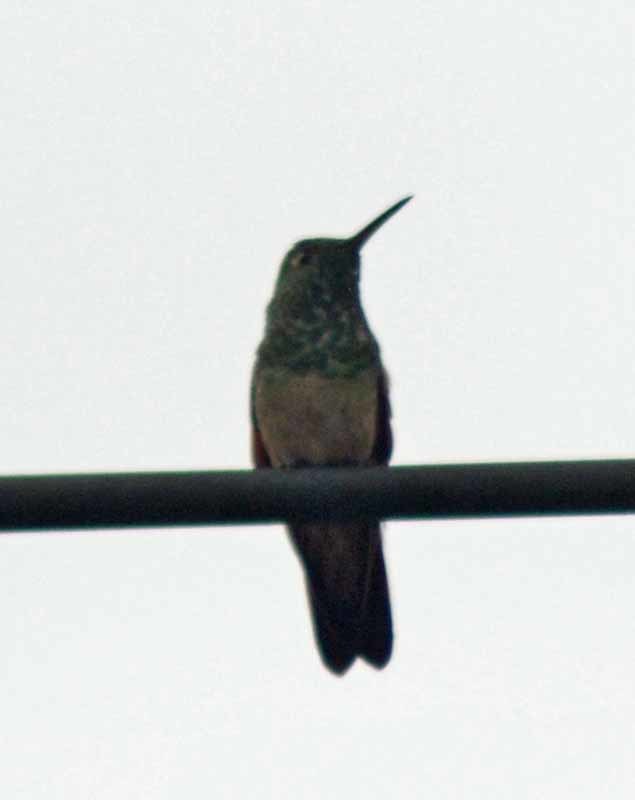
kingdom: Animalia
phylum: Chordata
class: Aves
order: Apodiformes
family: Trochilidae
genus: Saucerottia
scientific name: Saucerottia beryllina
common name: Berylline hummingbird
